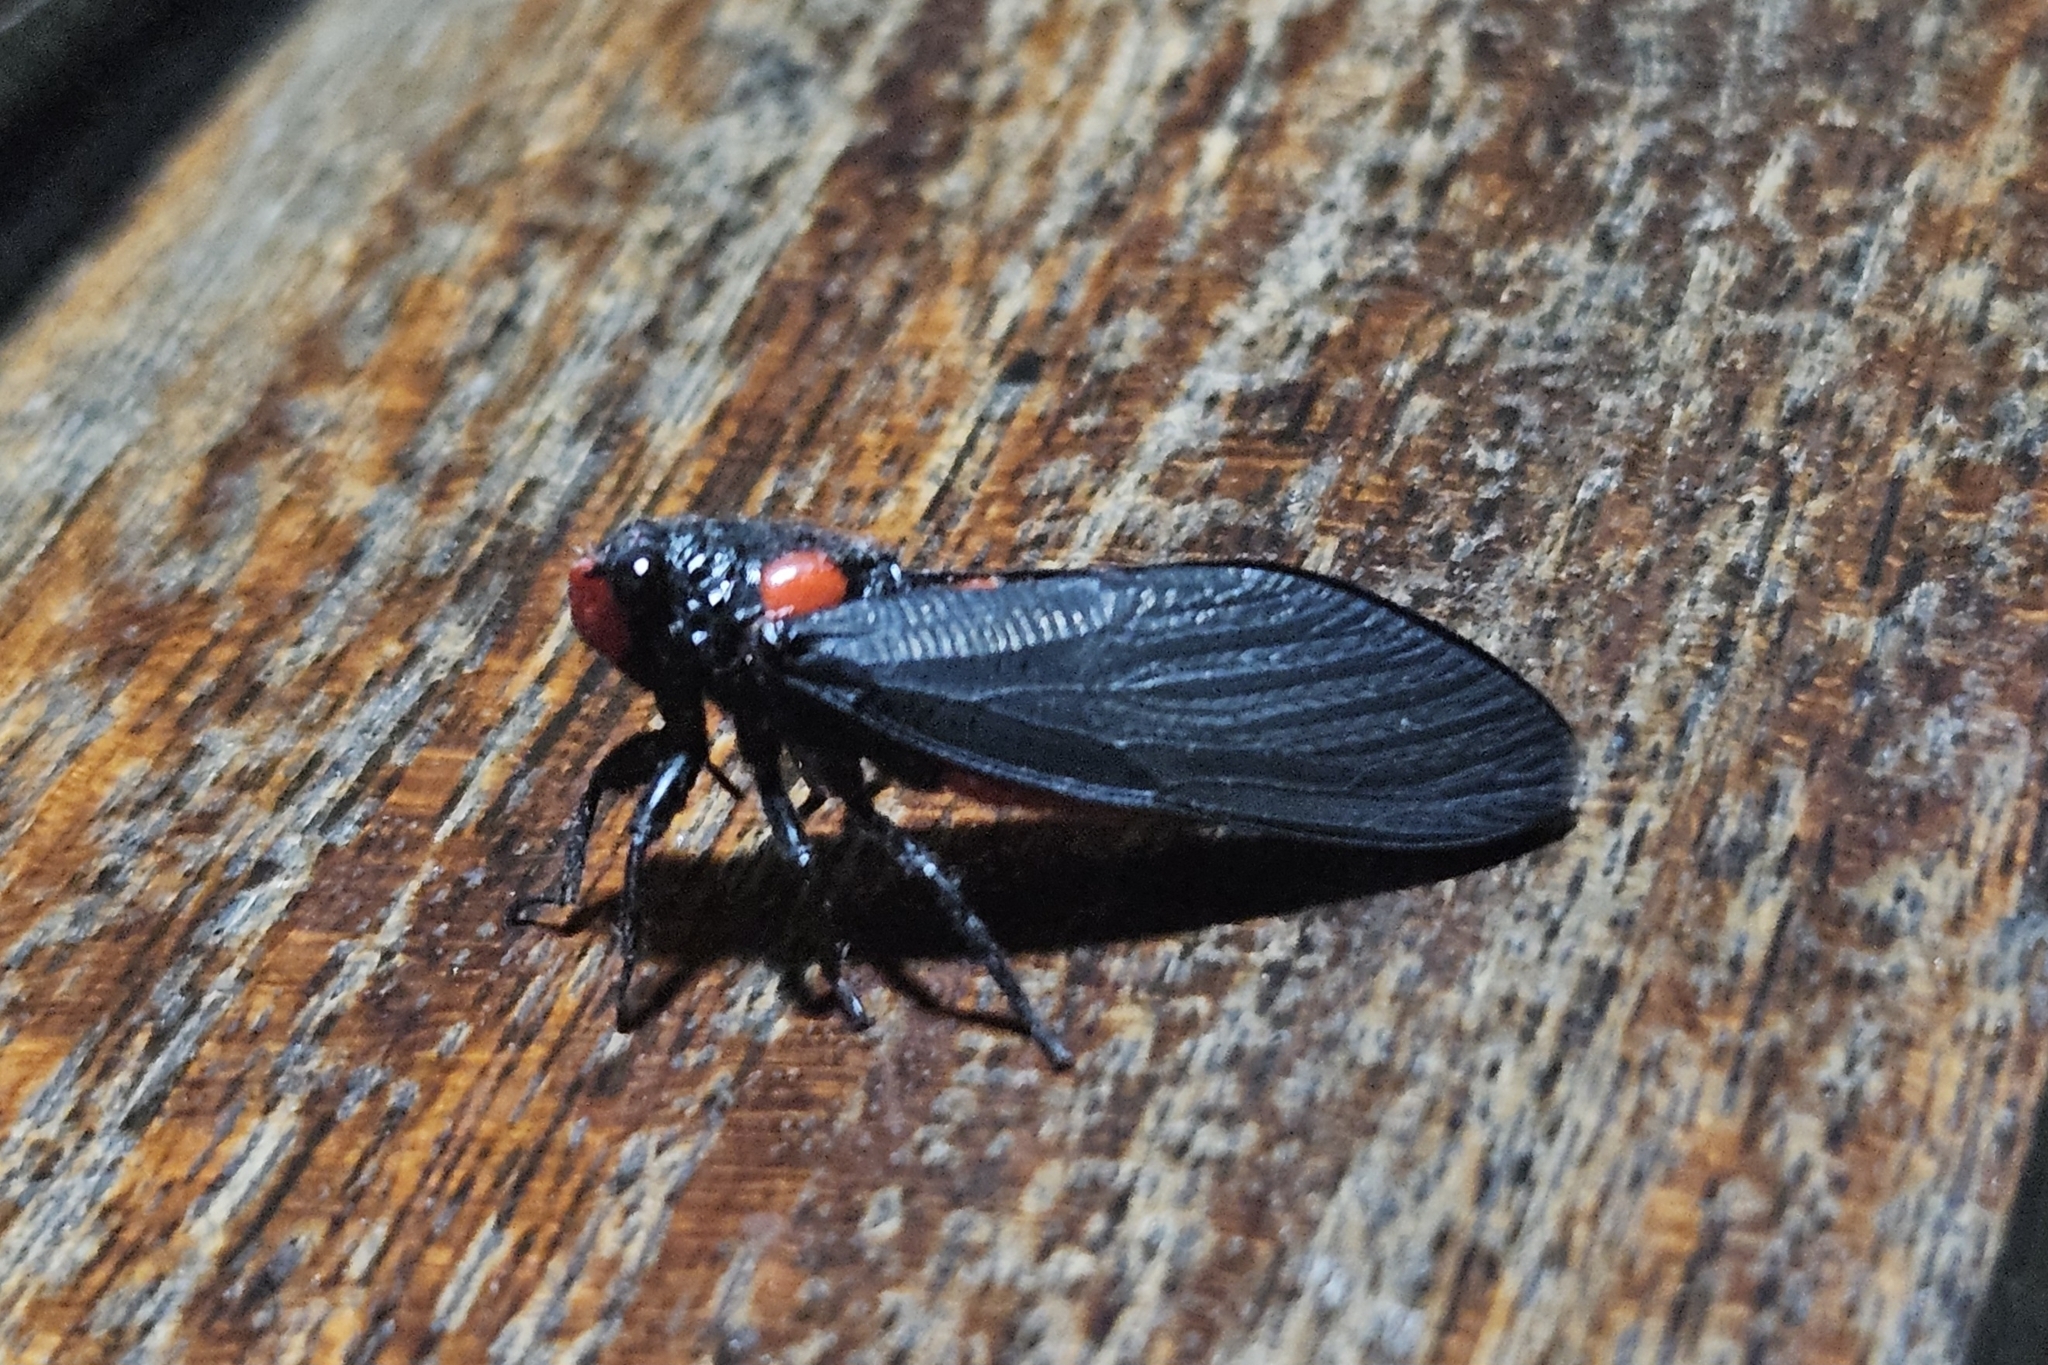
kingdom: Animalia
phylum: Arthropoda
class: Insecta
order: Hemiptera
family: Cicadidae
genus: Huechys
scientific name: Huechys sanguinea
